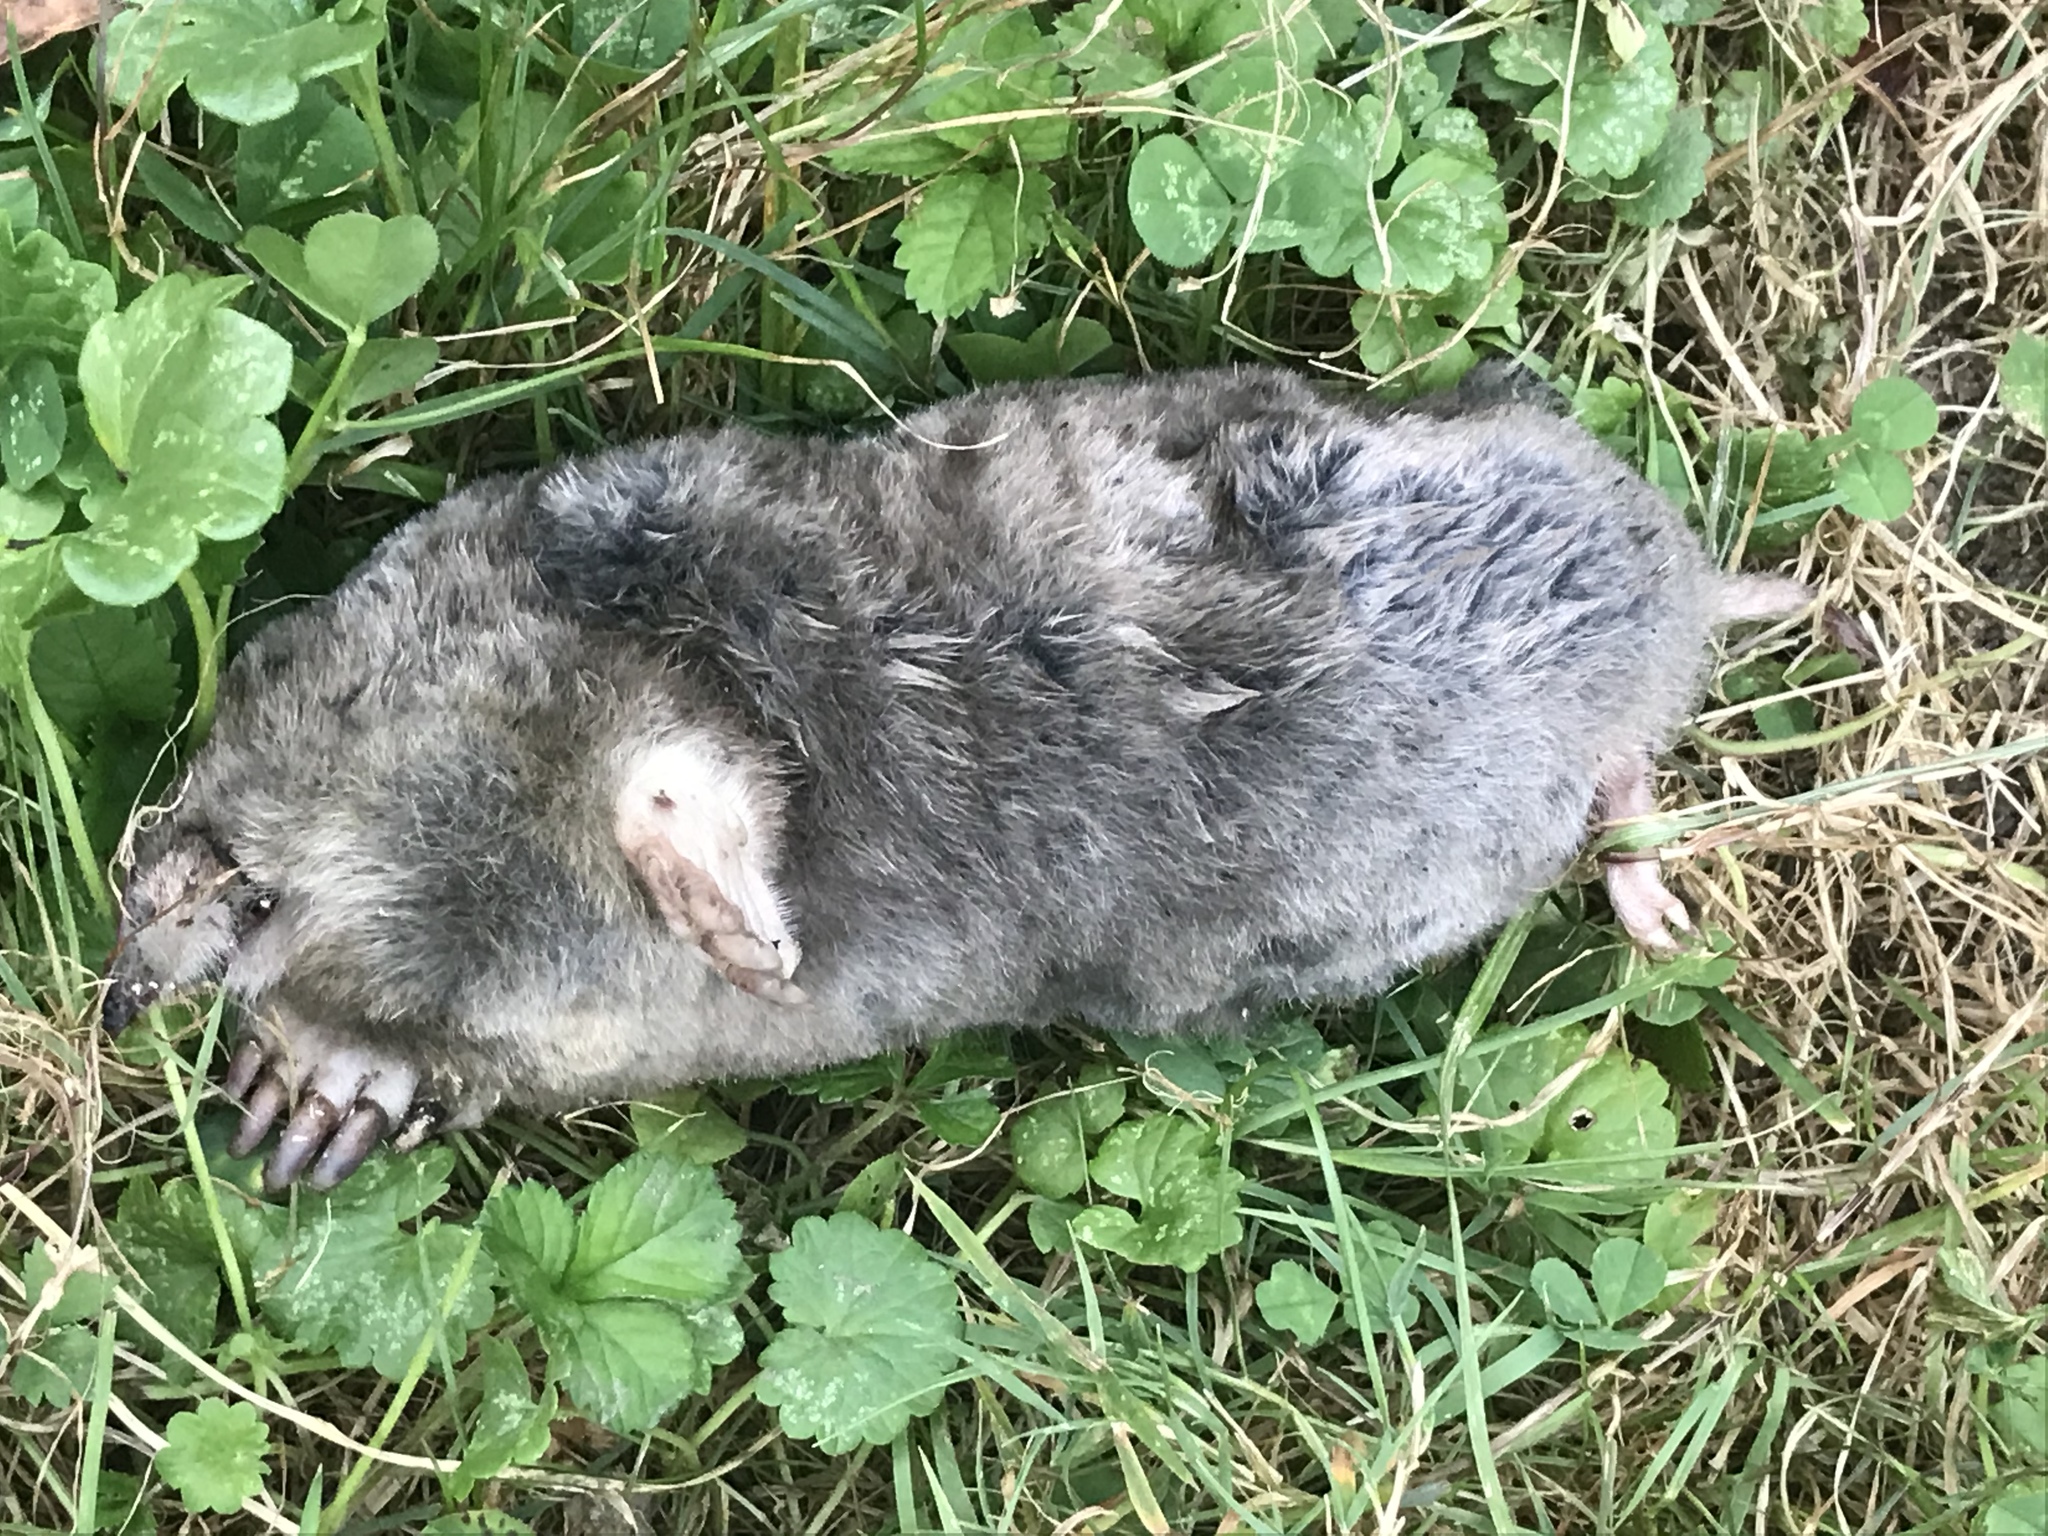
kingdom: Animalia
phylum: Chordata
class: Mammalia
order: Soricomorpha
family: Talpidae
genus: Scalopus
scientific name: Scalopus aquaticus
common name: Eastern mole
